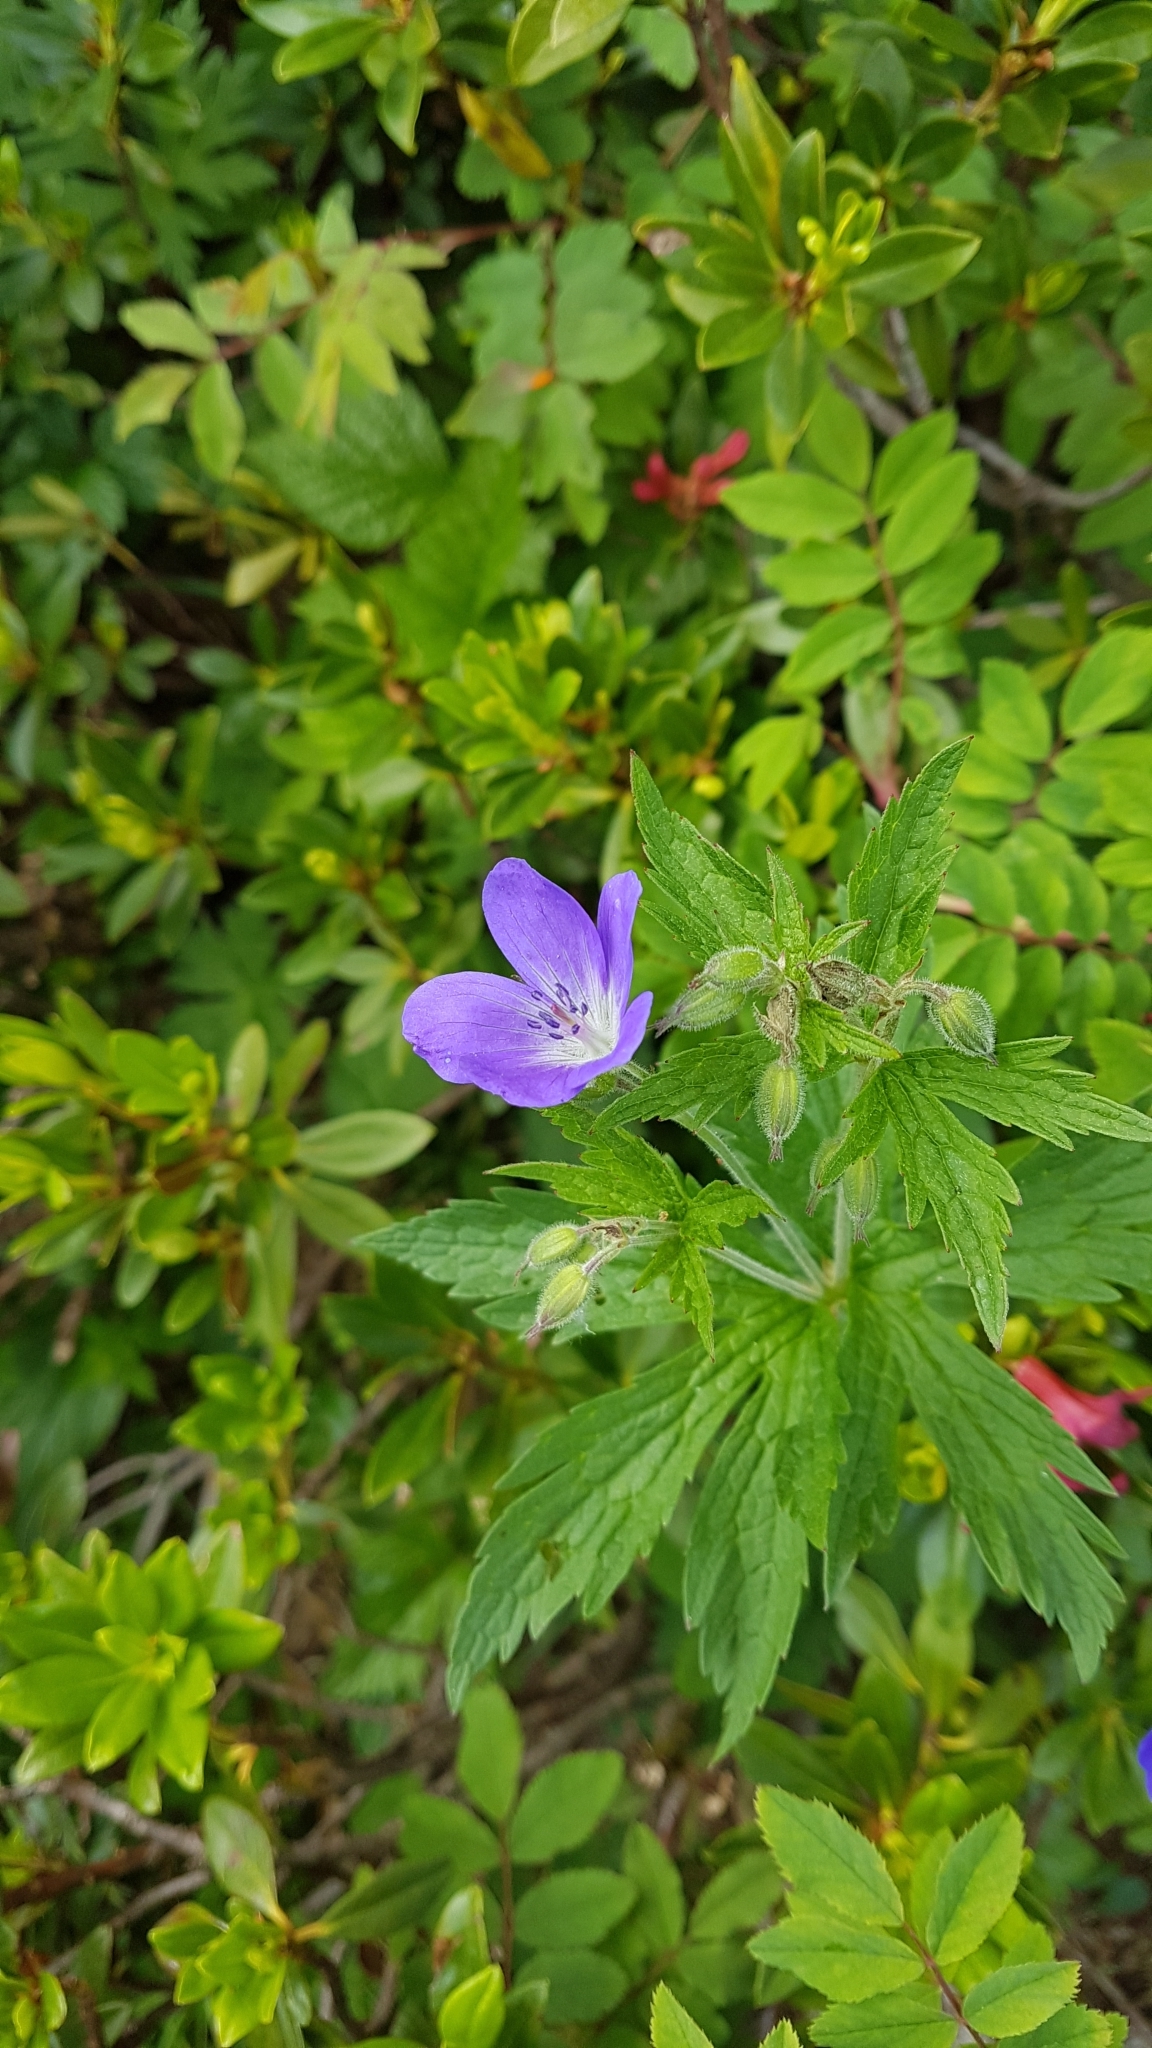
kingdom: Plantae
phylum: Tracheophyta
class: Magnoliopsida
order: Geraniales
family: Geraniaceae
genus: Geranium
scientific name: Geranium sylvaticum
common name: Wood crane's-bill
